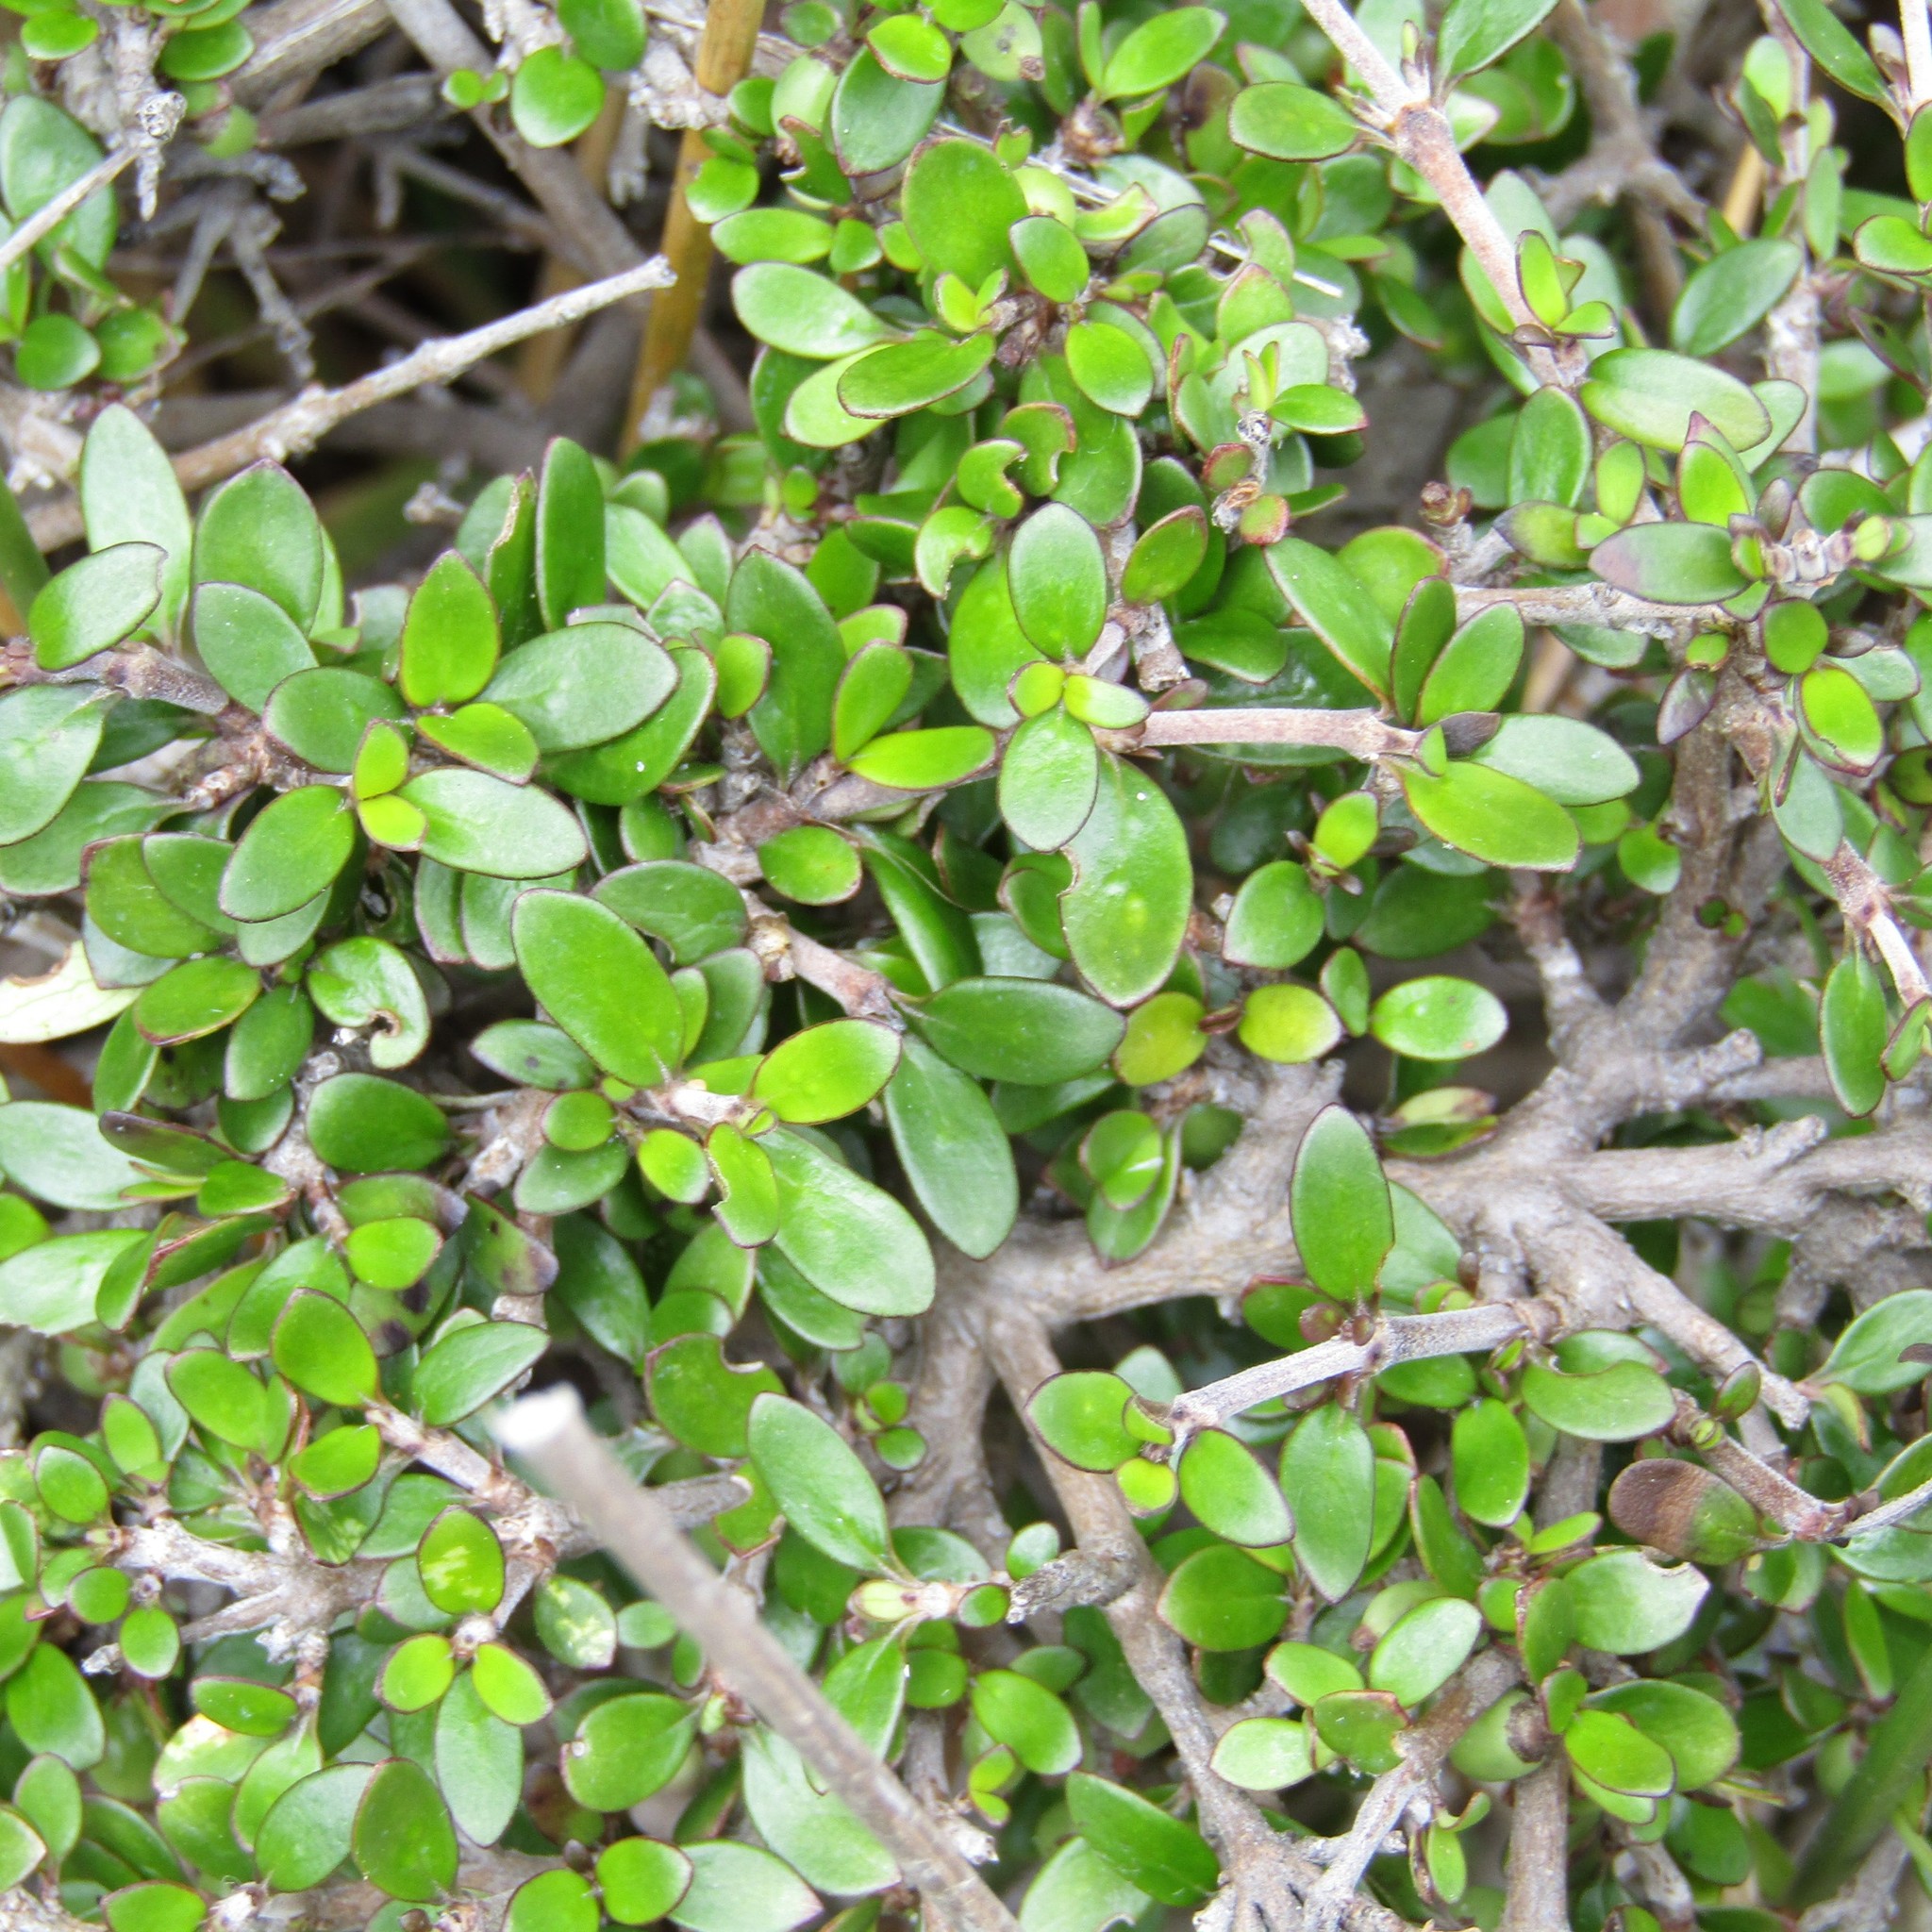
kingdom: Plantae
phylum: Tracheophyta
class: Magnoliopsida
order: Gentianales
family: Rubiaceae
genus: Coprosma
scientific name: Coprosma propinqua
